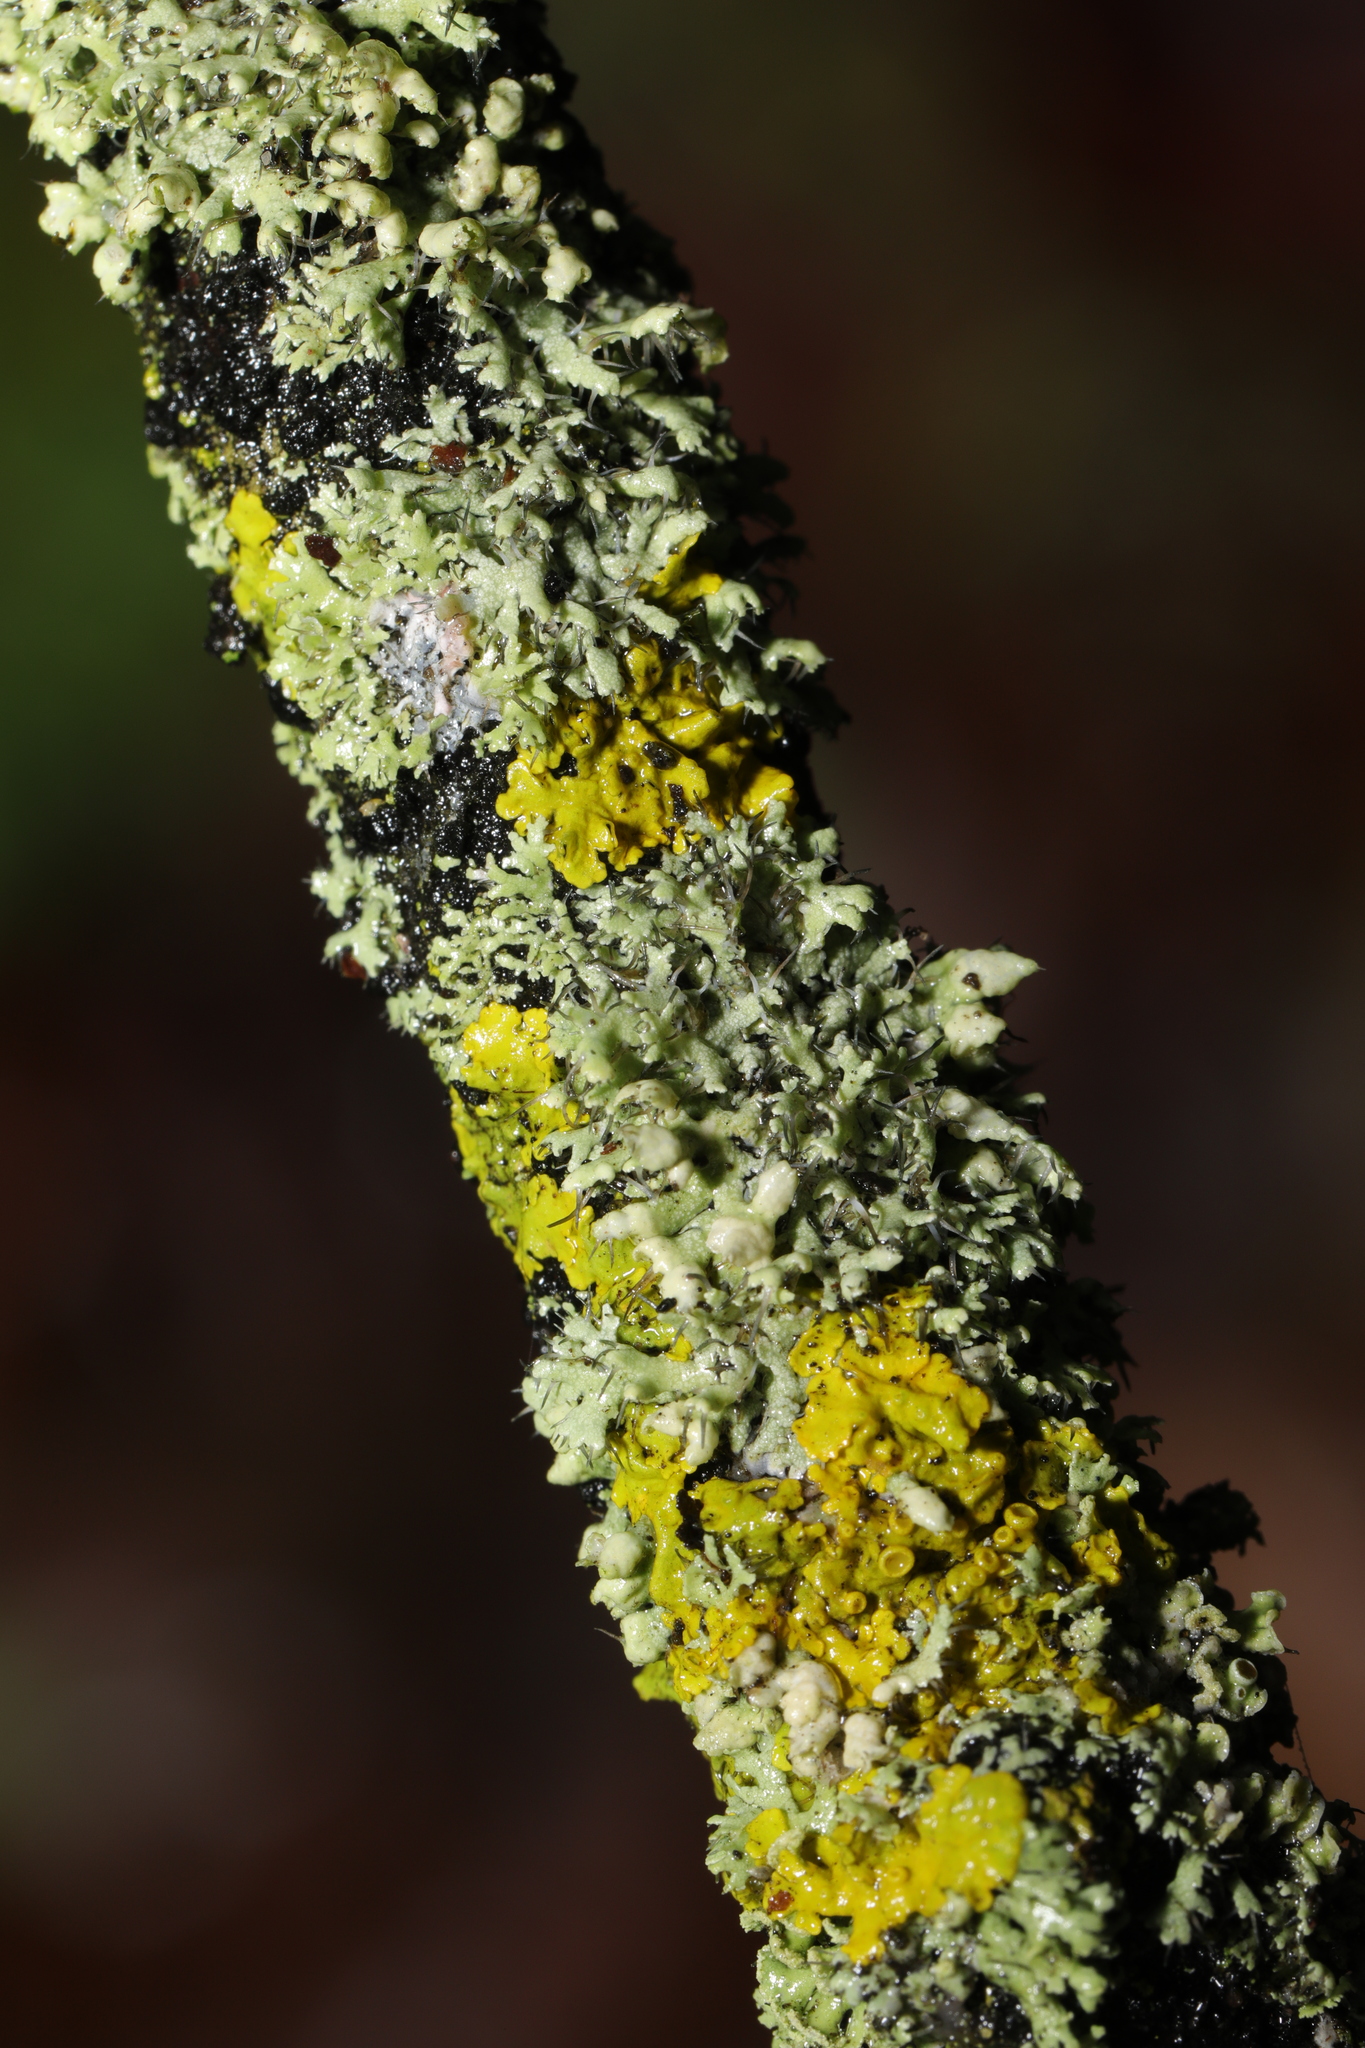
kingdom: Fungi
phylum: Ascomycota
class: Lecanoromycetes
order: Caliciales
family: Physciaceae
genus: Physcia
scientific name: Physcia adscendens
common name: Hooded rosette lichen
